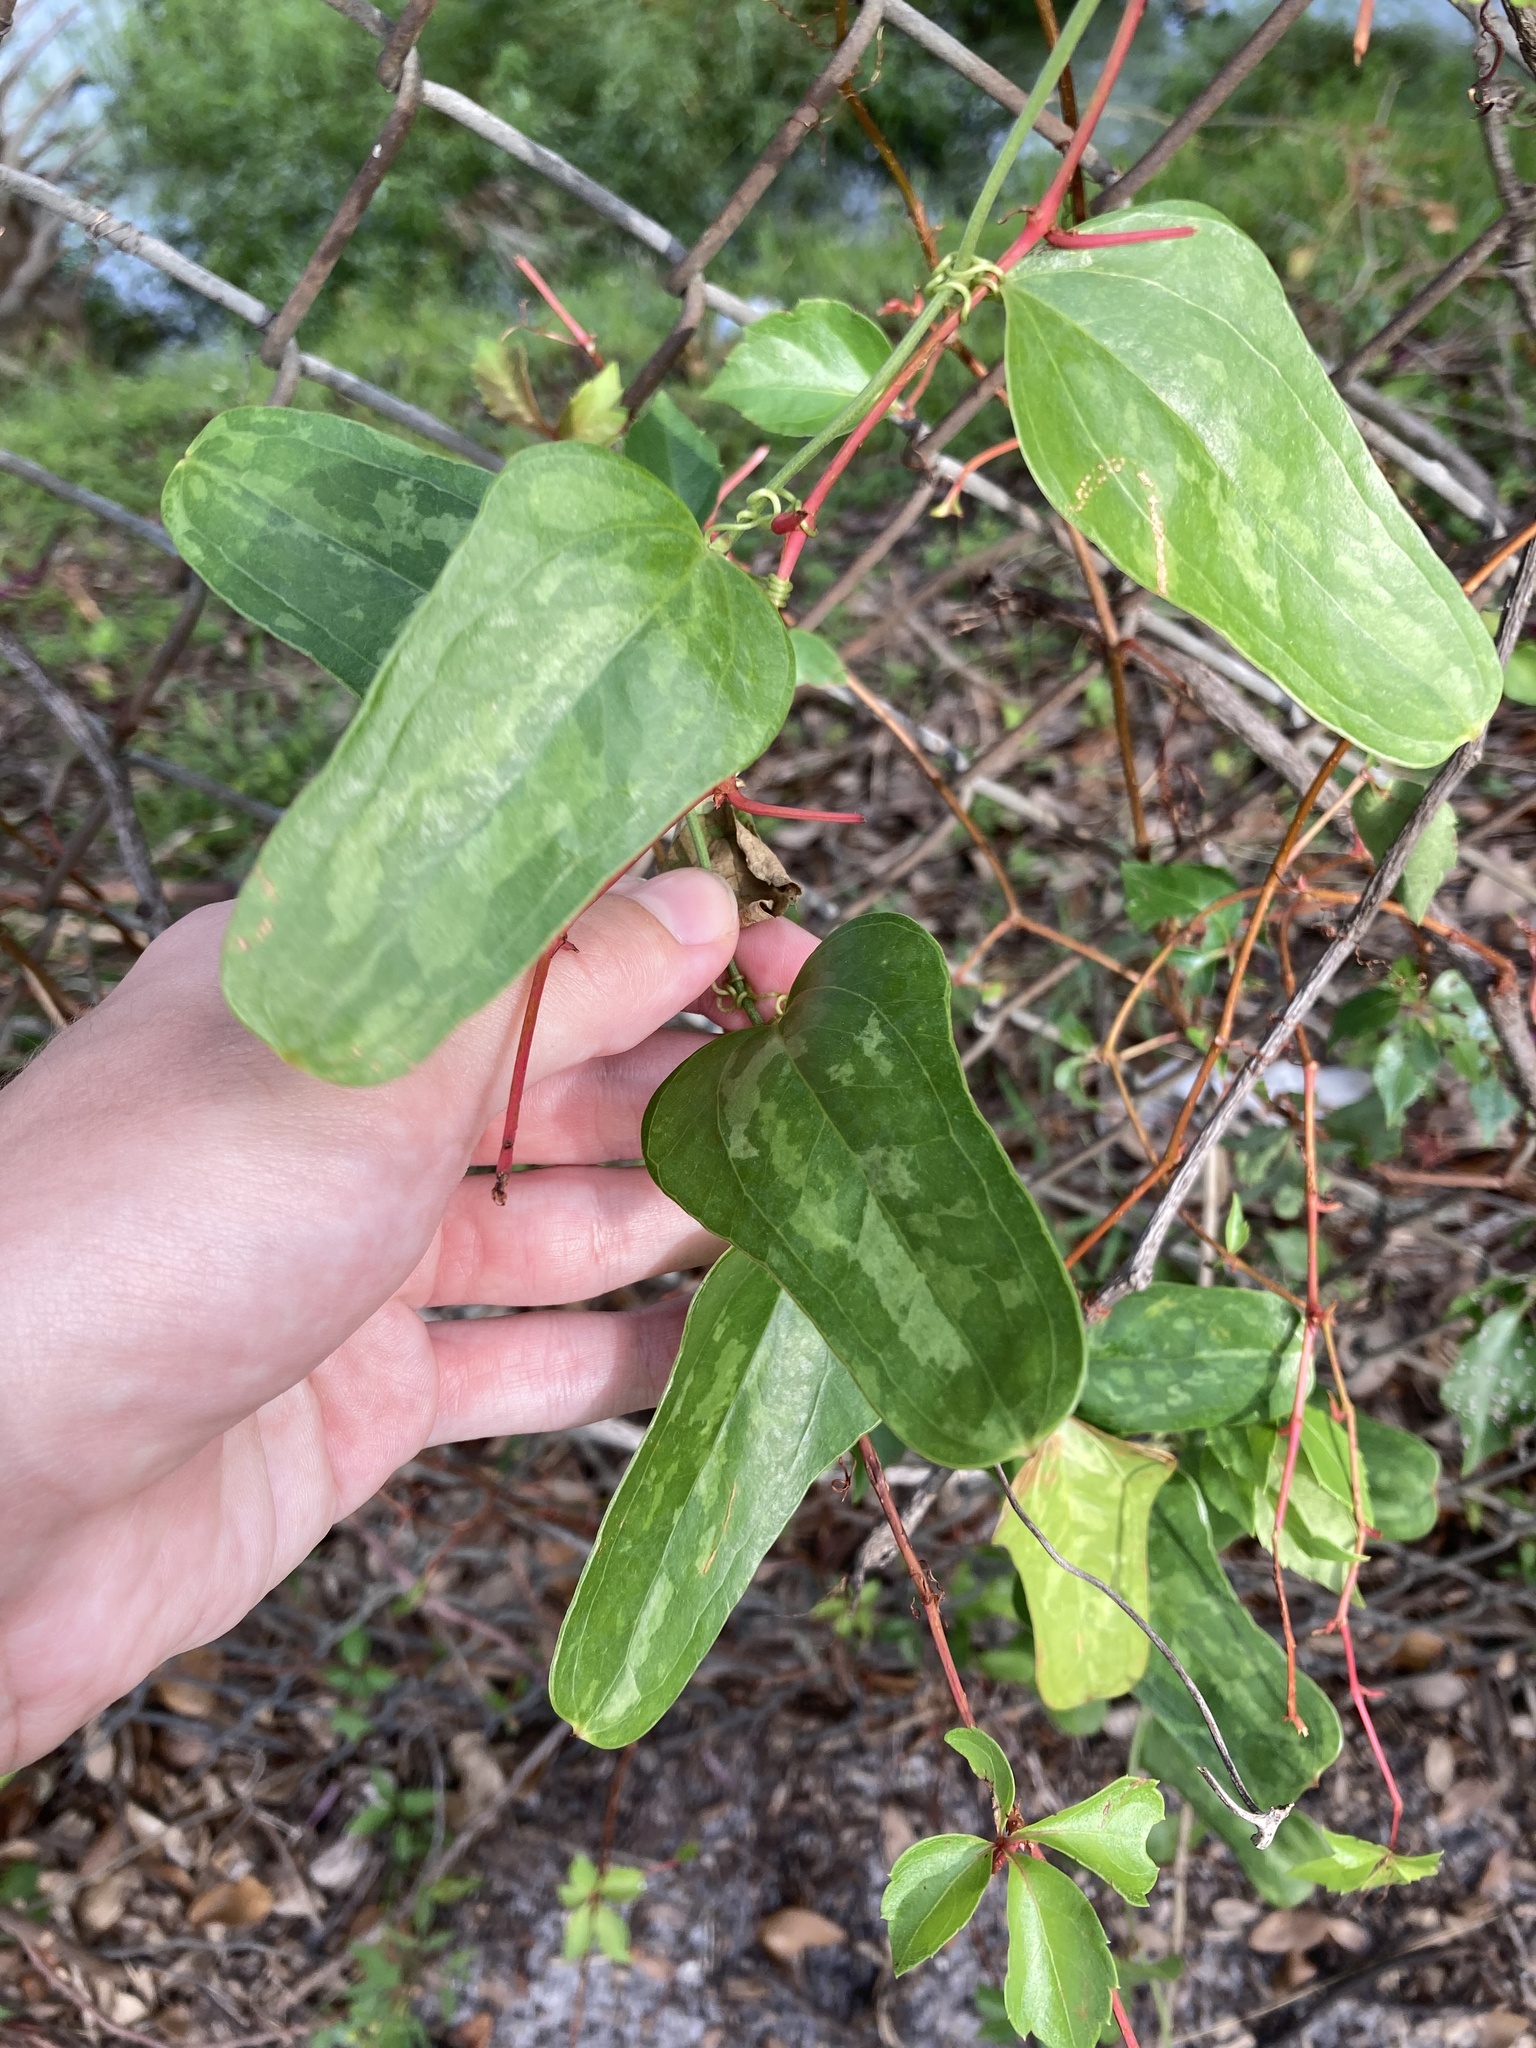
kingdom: Plantae
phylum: Tracheophyta
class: Liliopsida
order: Liliales
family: Smilacaceae
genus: Smilax
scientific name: Smilax auriculata
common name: Wild bamboo
